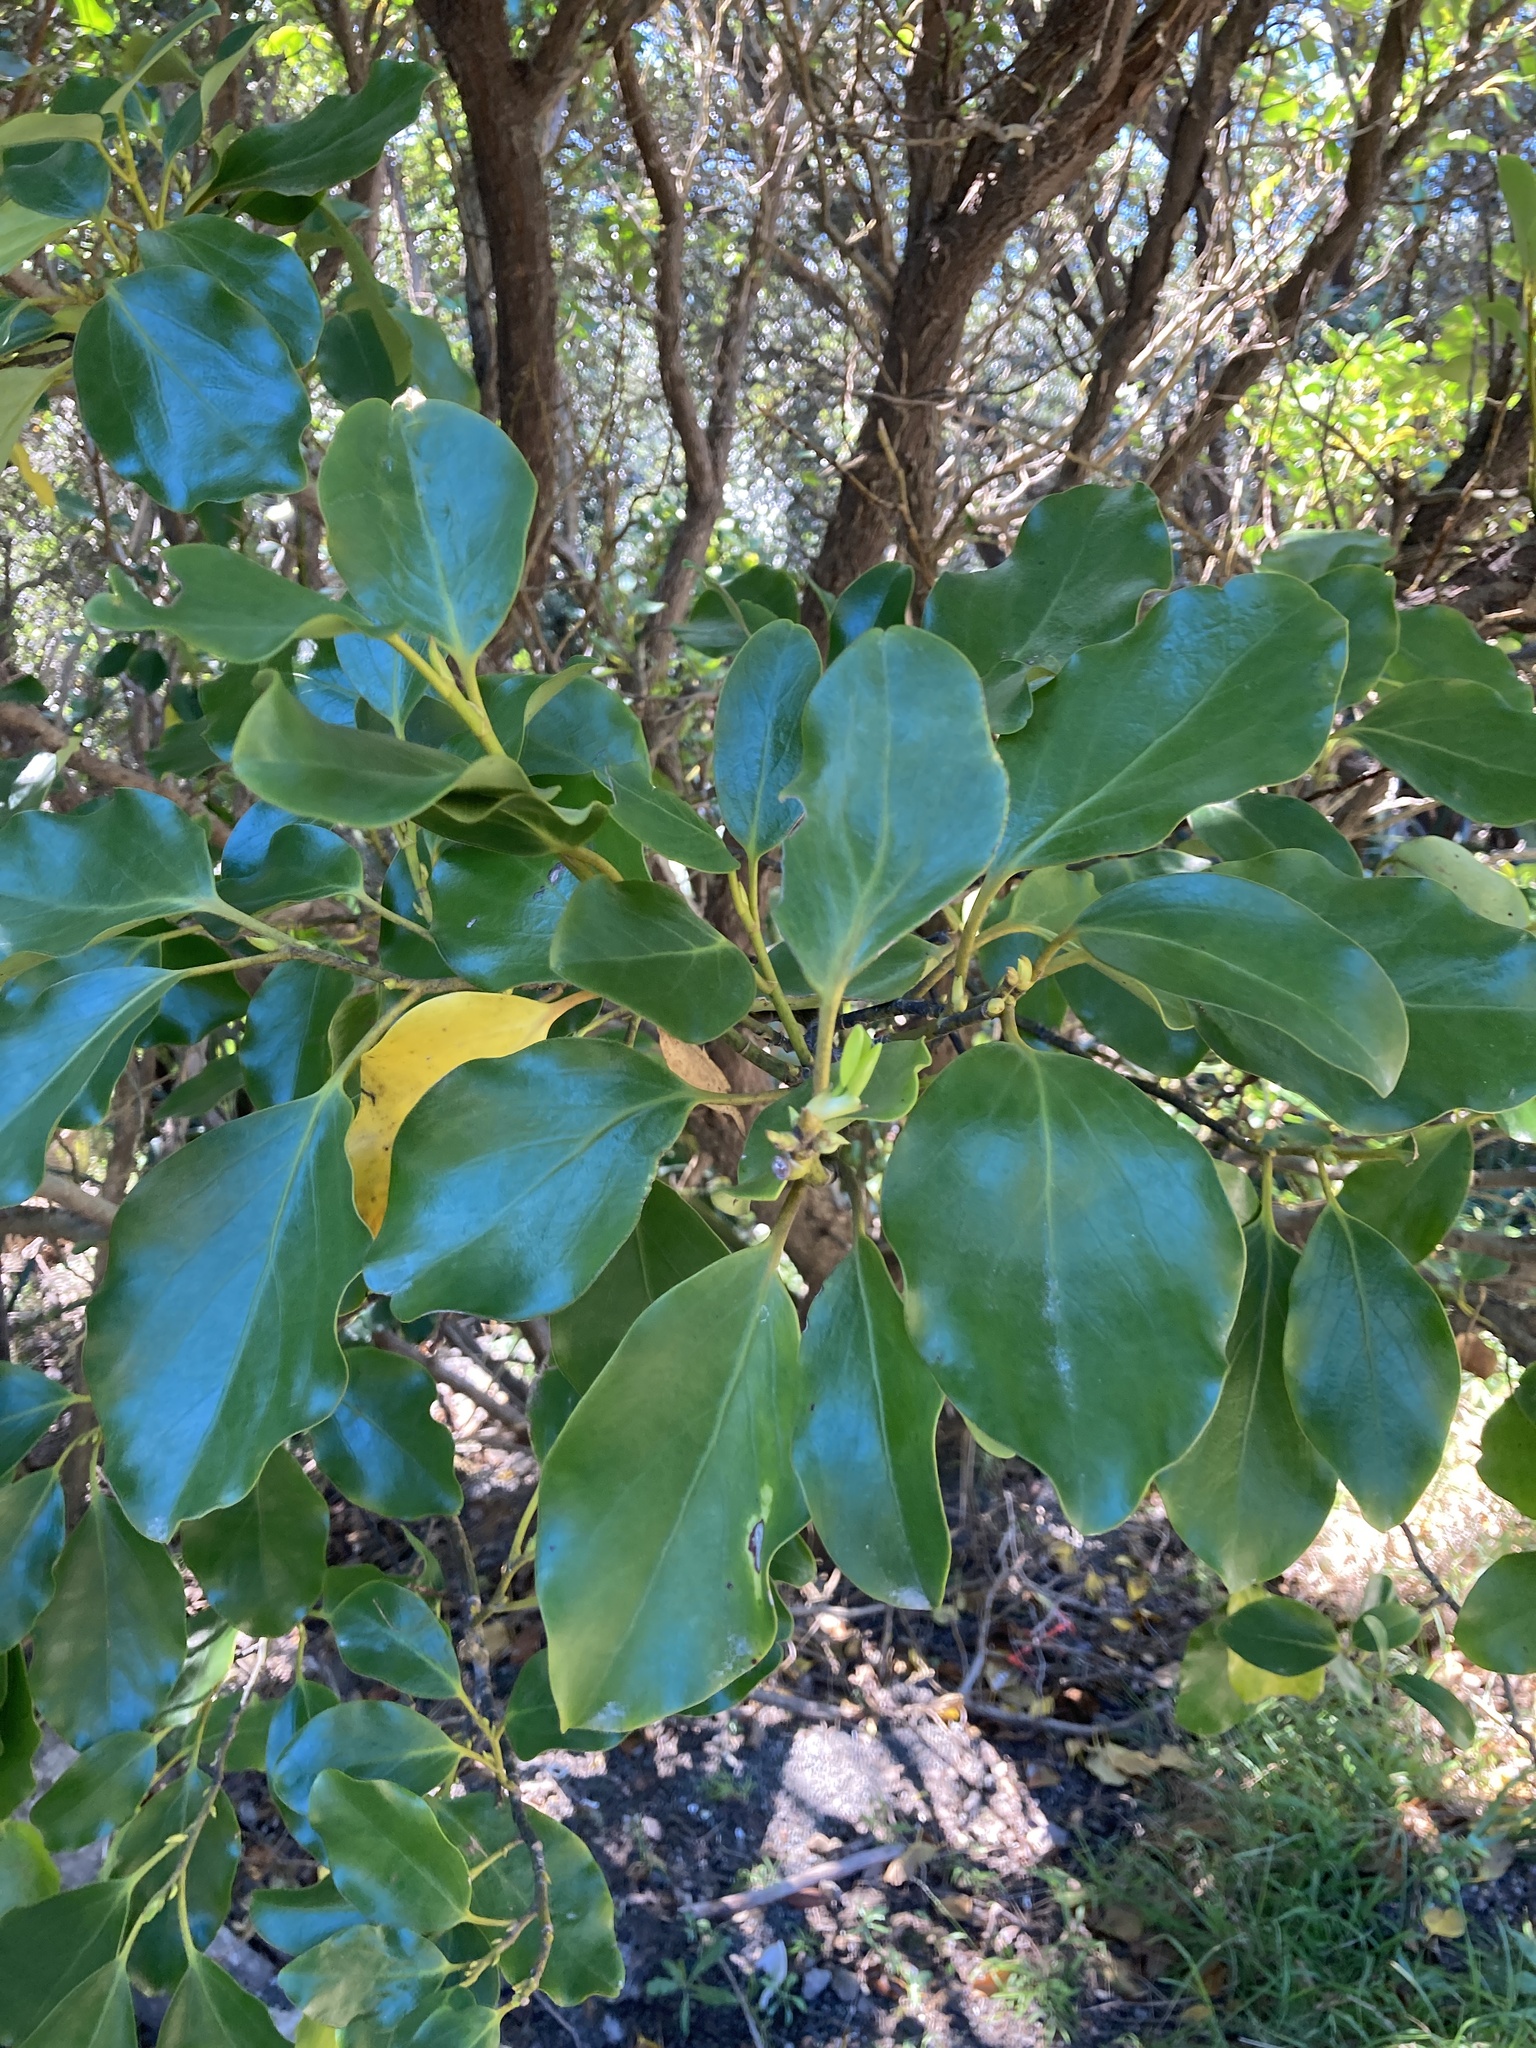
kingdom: Plantae
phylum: Tracheophyta
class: Magnoliopsida
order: Apiales
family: Griseliniaceae
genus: Griselinia
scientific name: Griselinia littoralis
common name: New zealand broadleaf
